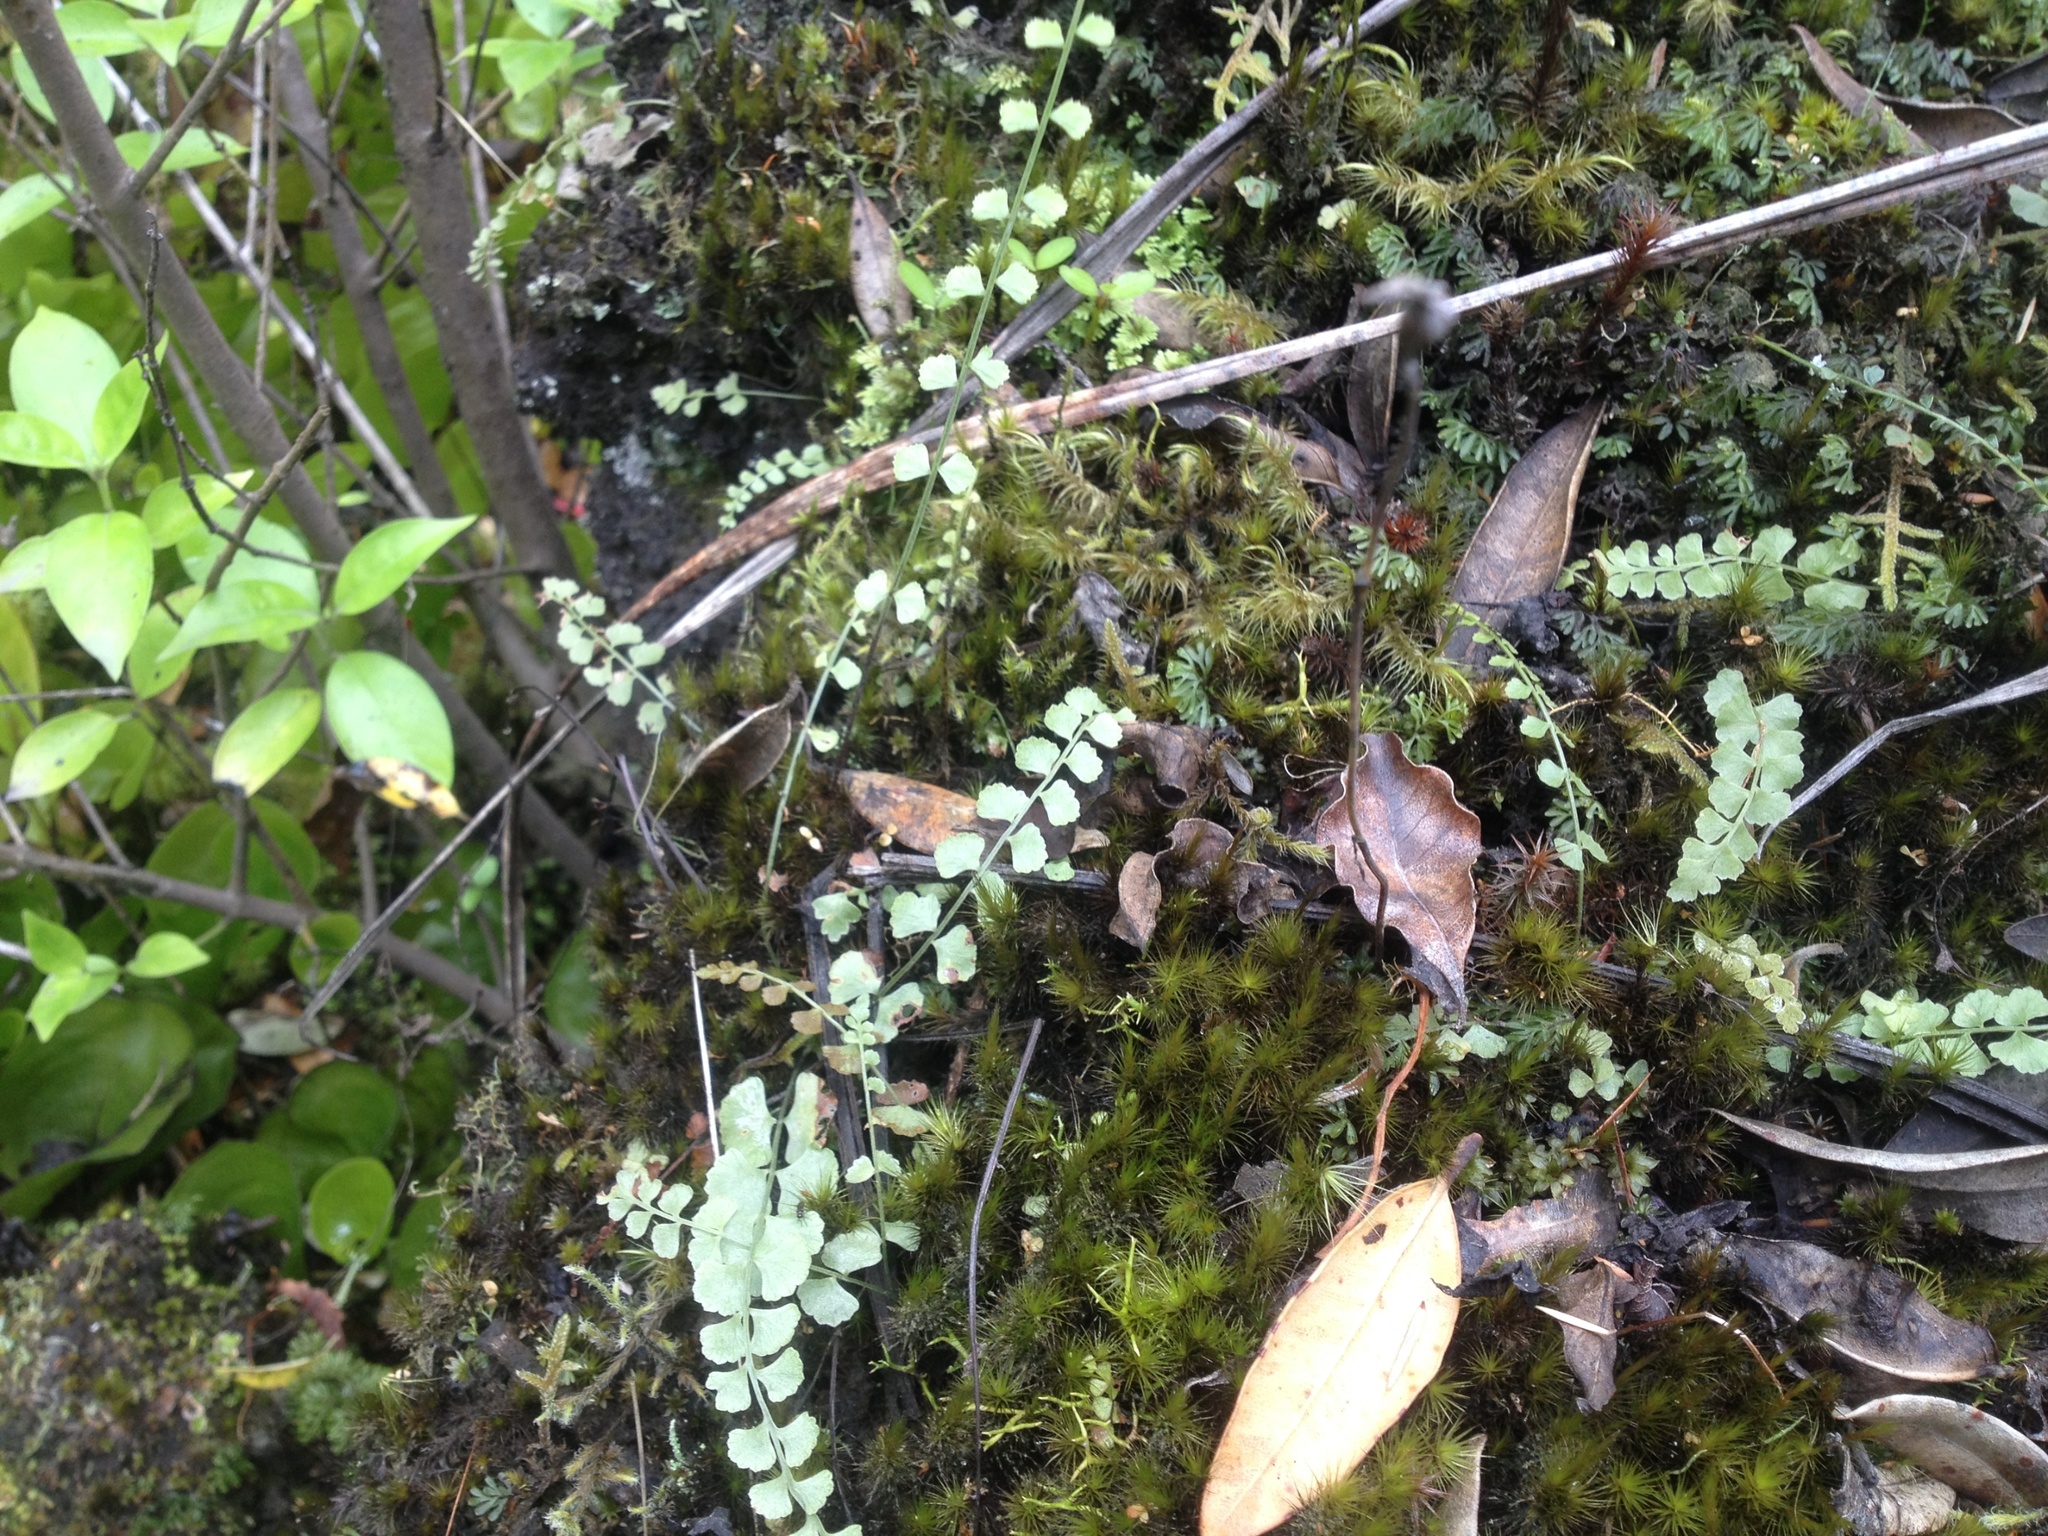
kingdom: Plantae
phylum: Tracheophyta
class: Polypodiopsida
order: Polypodiales
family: Aspleniaceae
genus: Asplenium
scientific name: Asplenium flabellifolium
